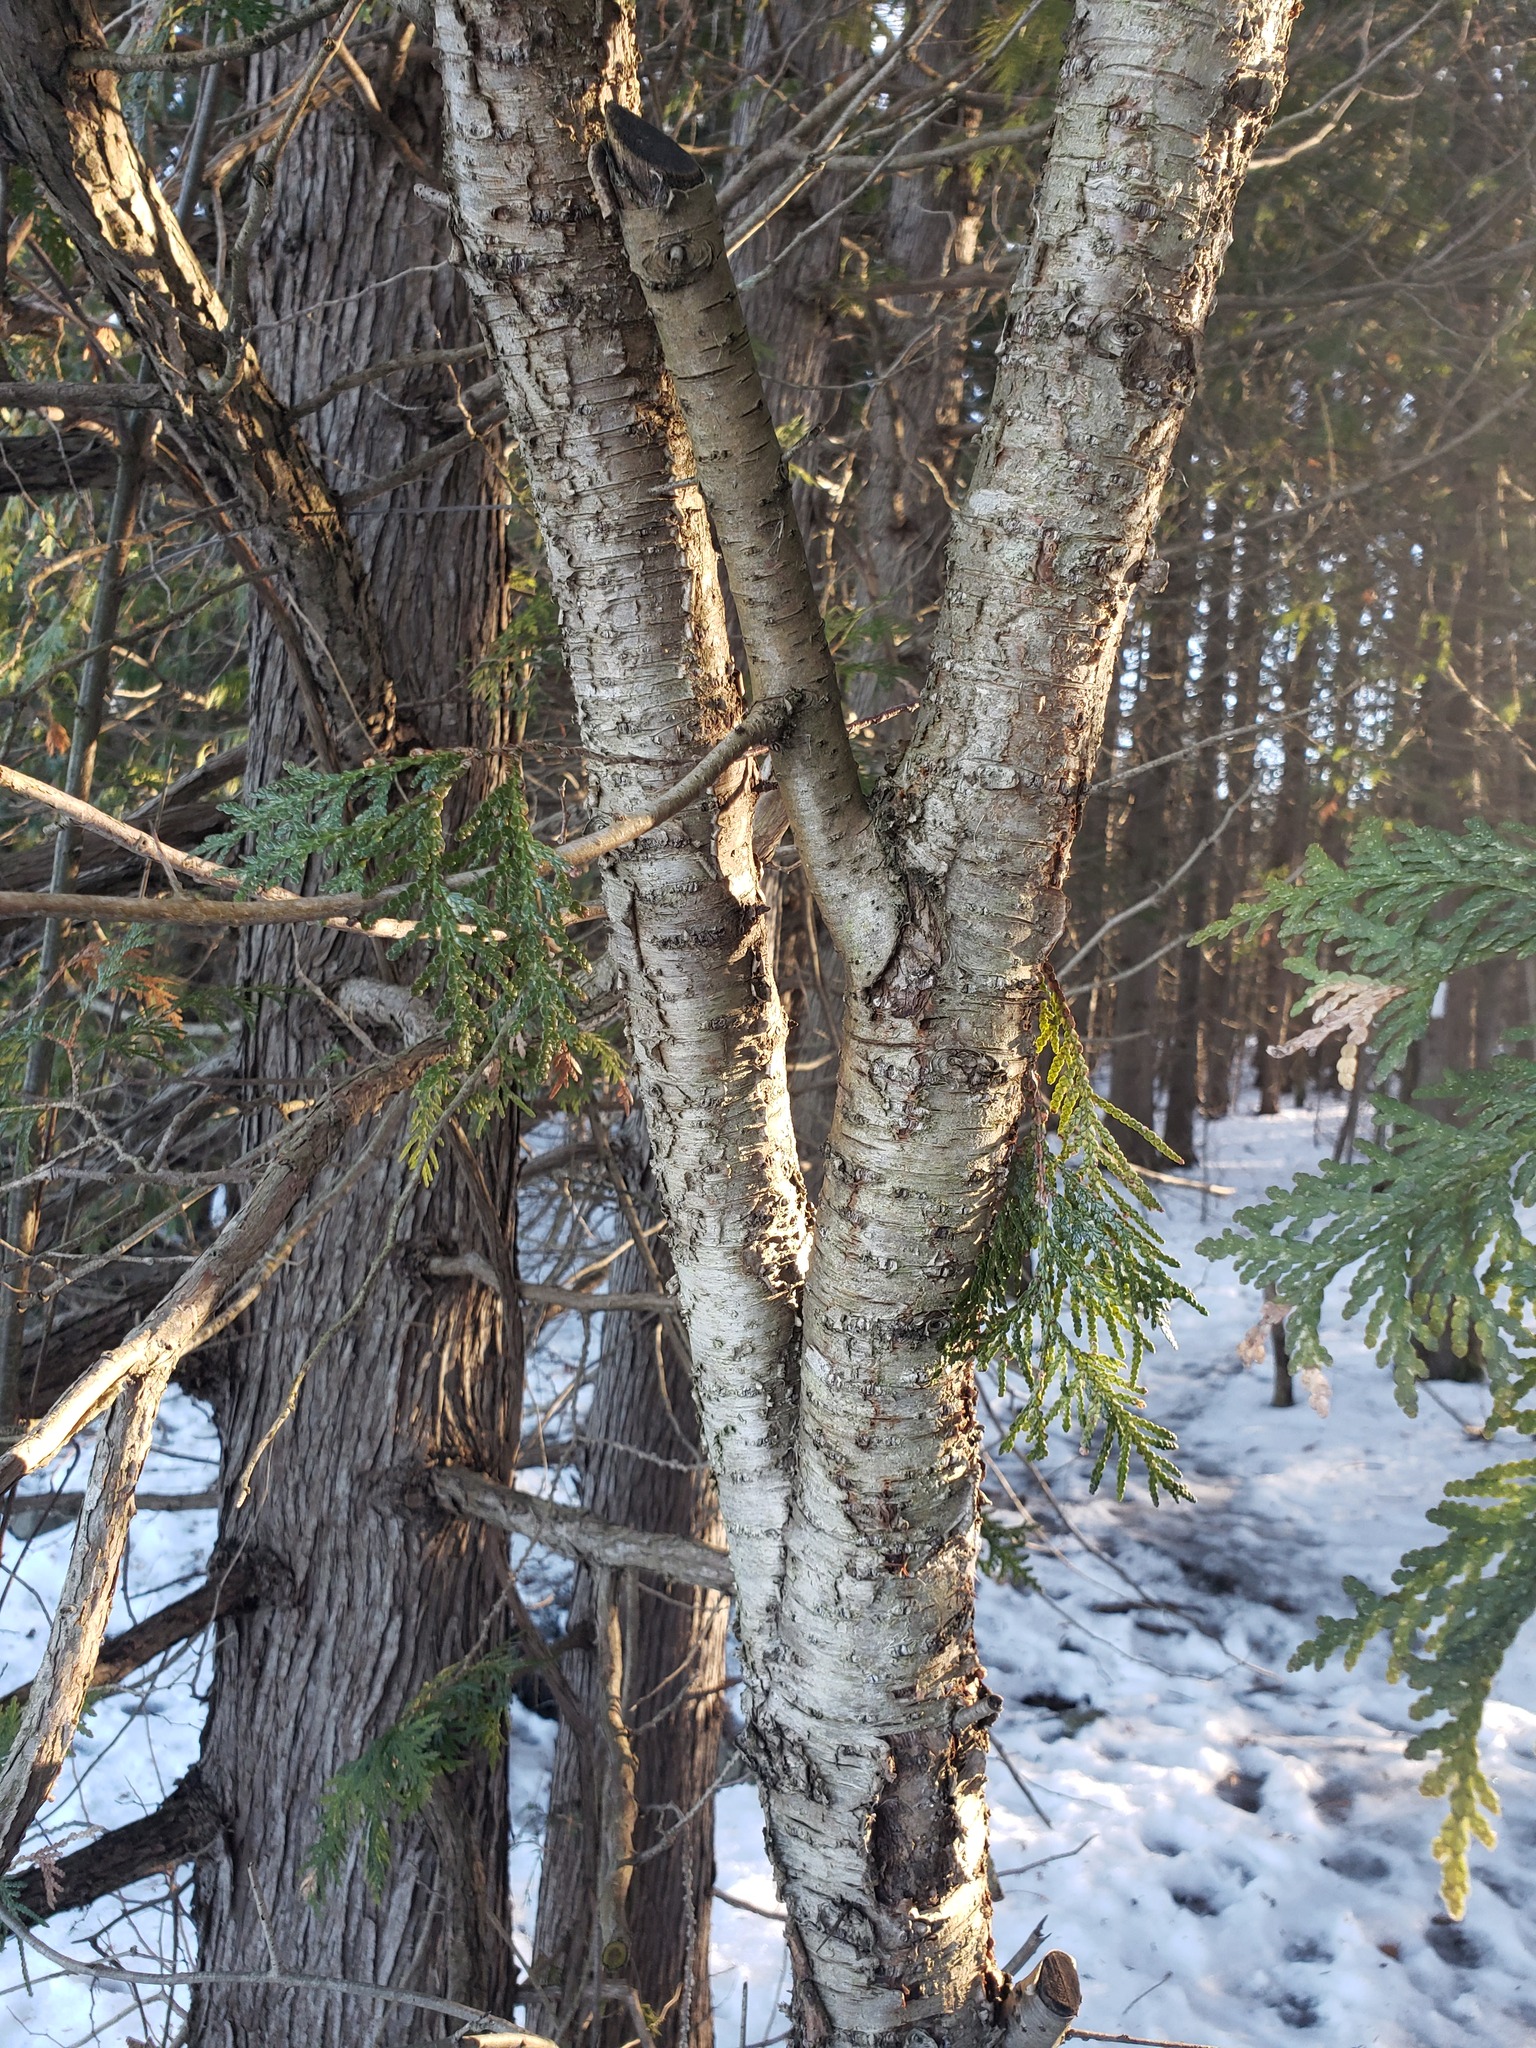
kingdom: Plantae
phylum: Tracheophyta
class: Magnoliopsida
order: Fagales
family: Betulaceae
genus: Betula
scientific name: Betula alleghaniensis
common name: Yellow birch
